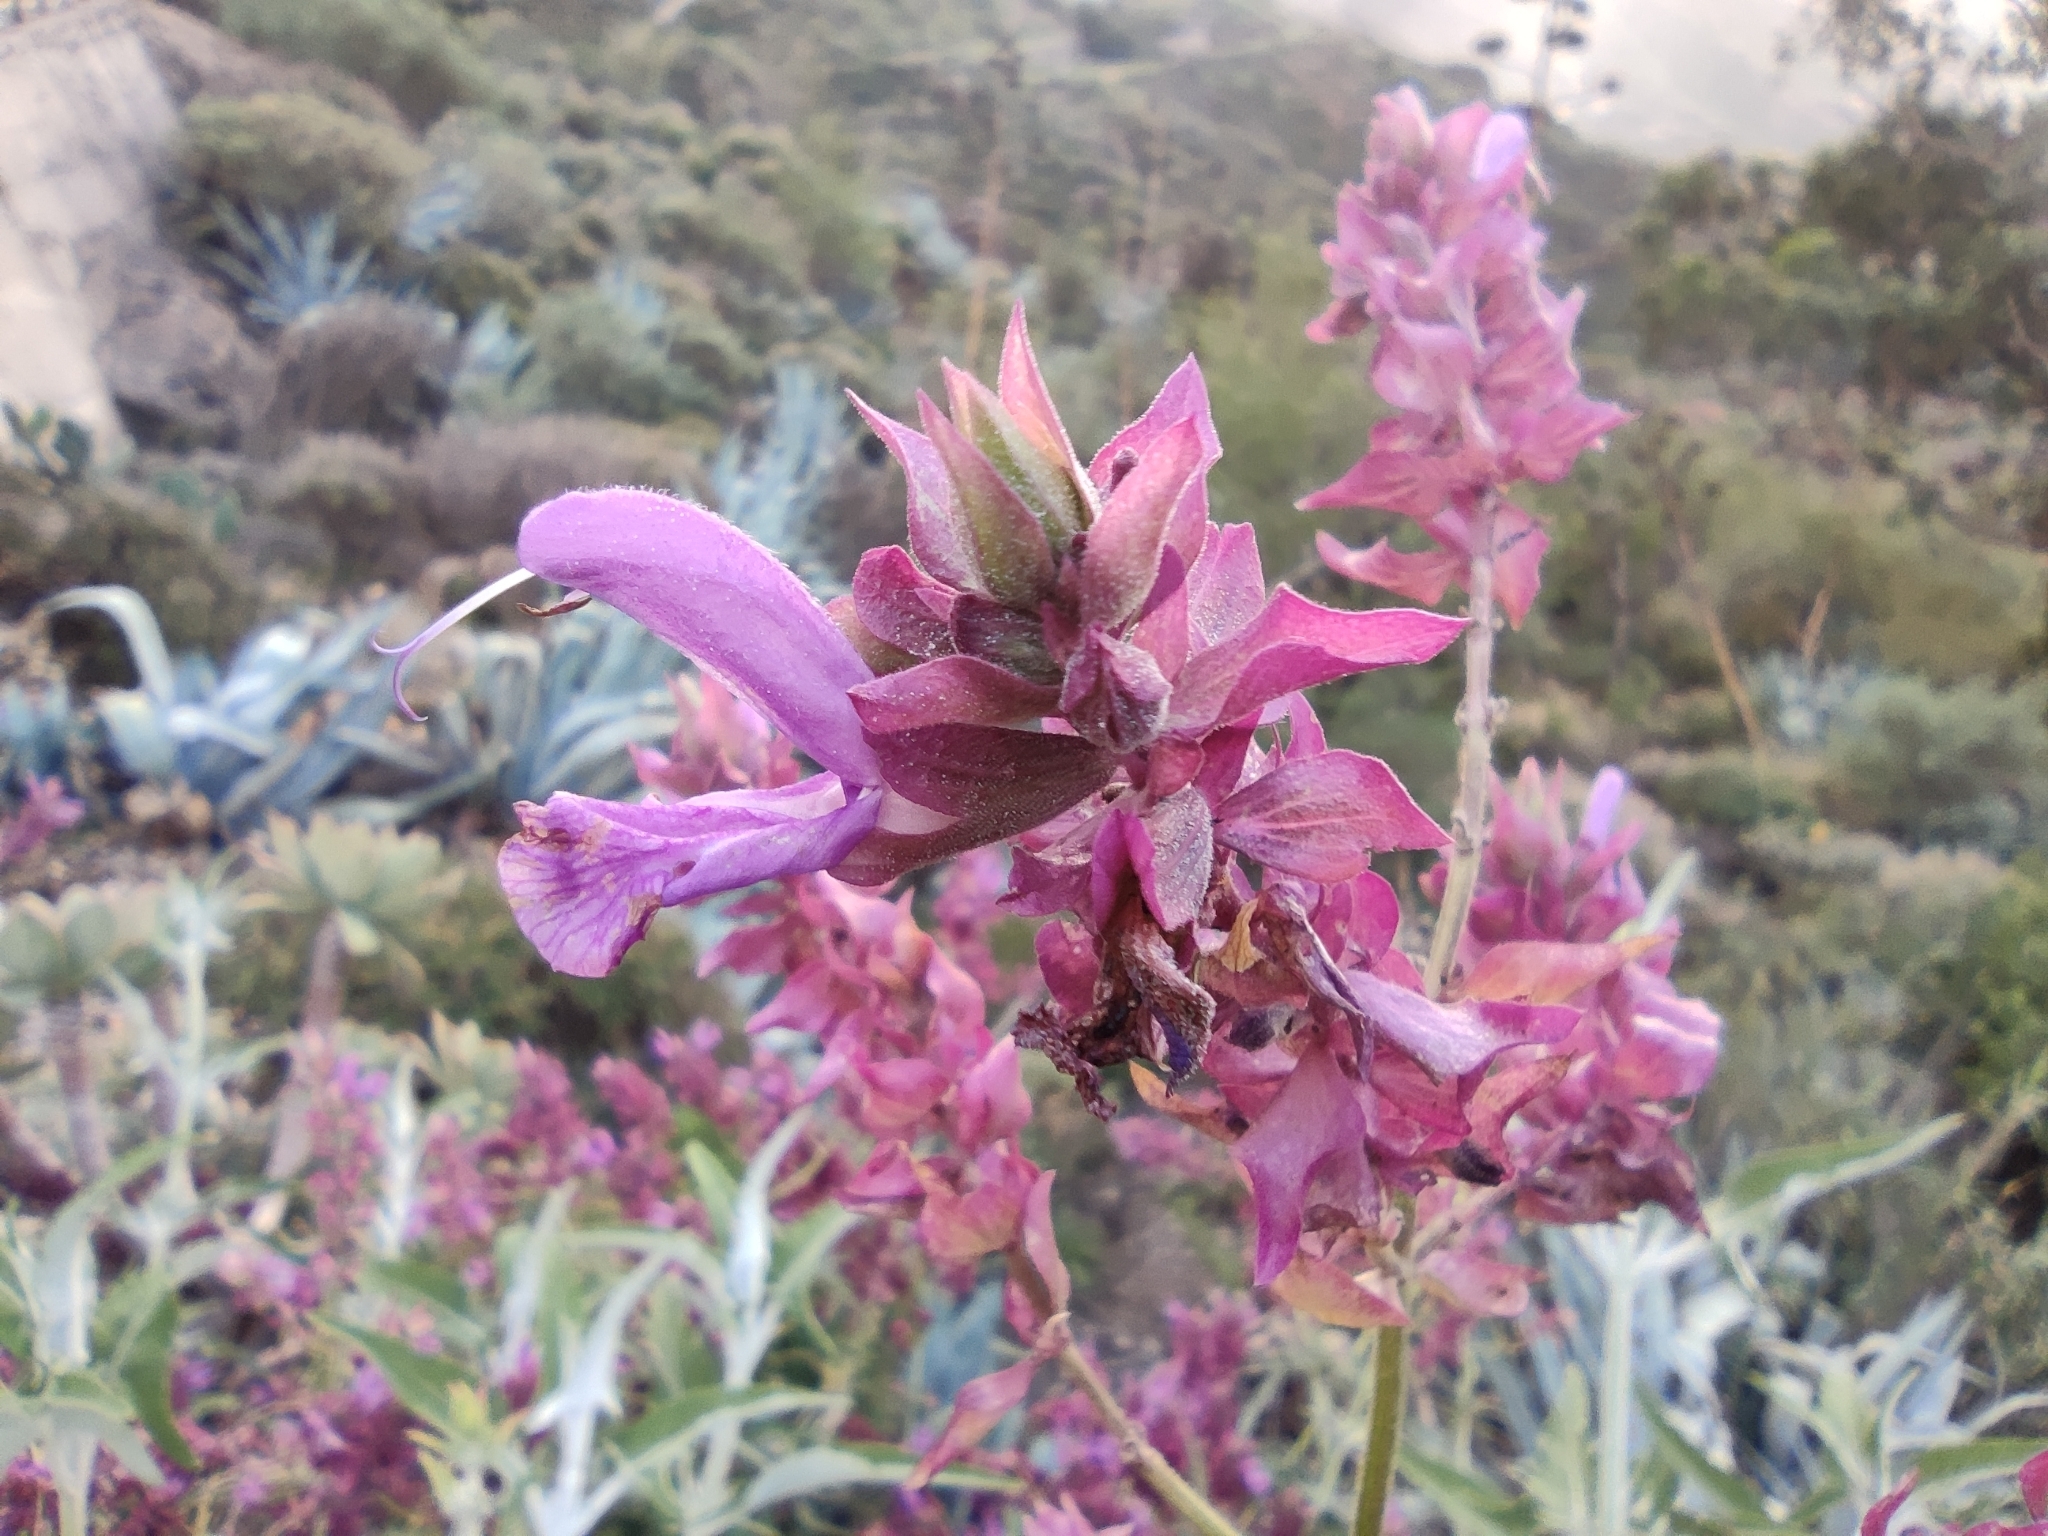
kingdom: Plantae
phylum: Tracheophyta
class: Magnoliopsida
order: Lamiales
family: Lamiaceae
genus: Salvia
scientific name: Salvia canariensis
